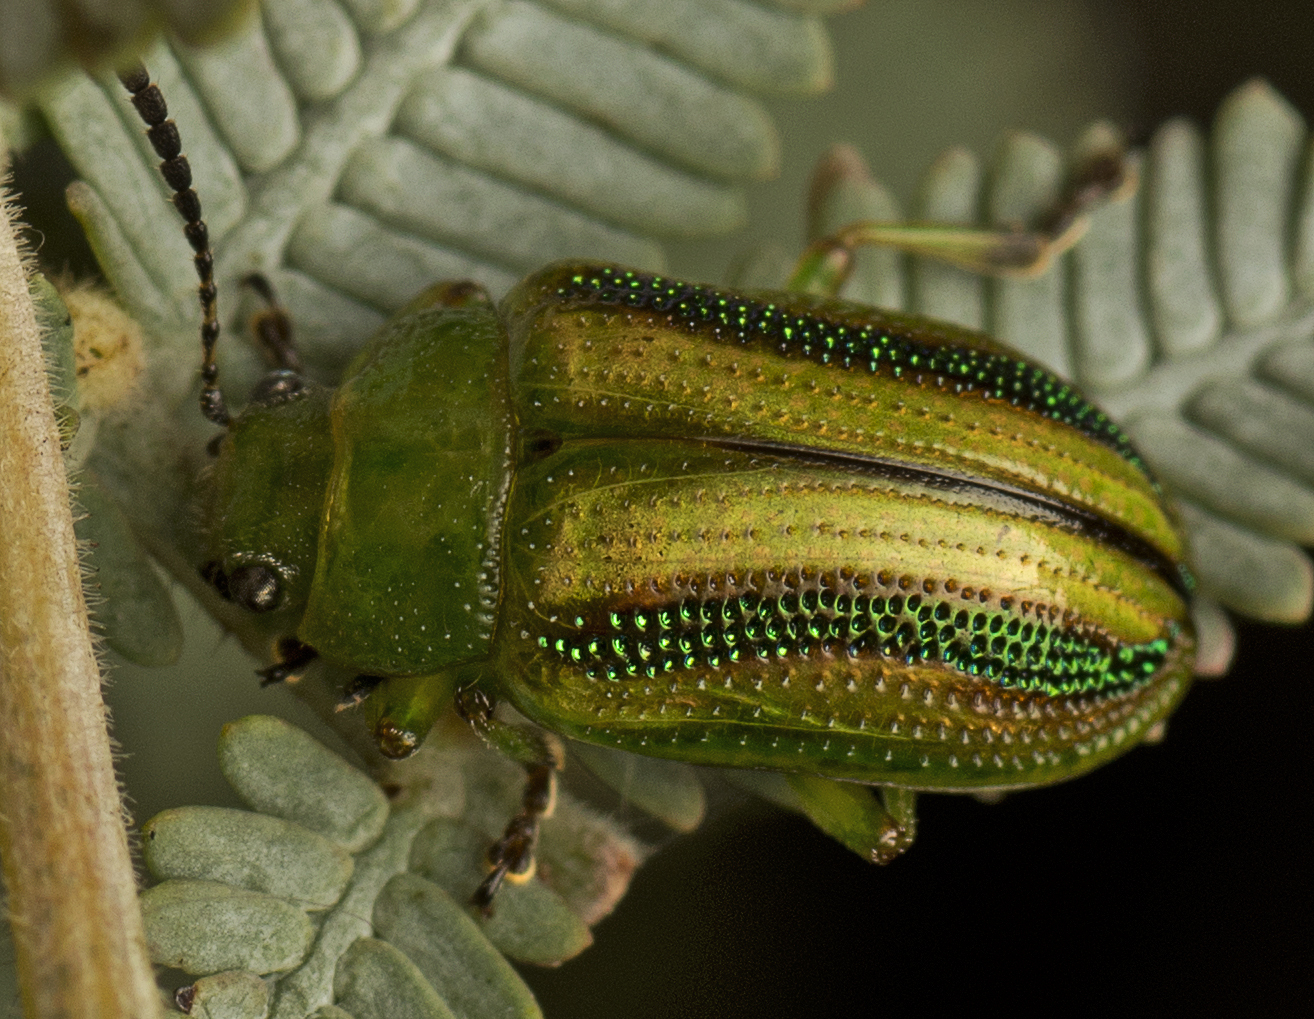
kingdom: Animalia
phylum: Arthropoda
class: Insecta
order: Coleoptera
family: Chrysomelidae
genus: Calomela
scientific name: Calomela
